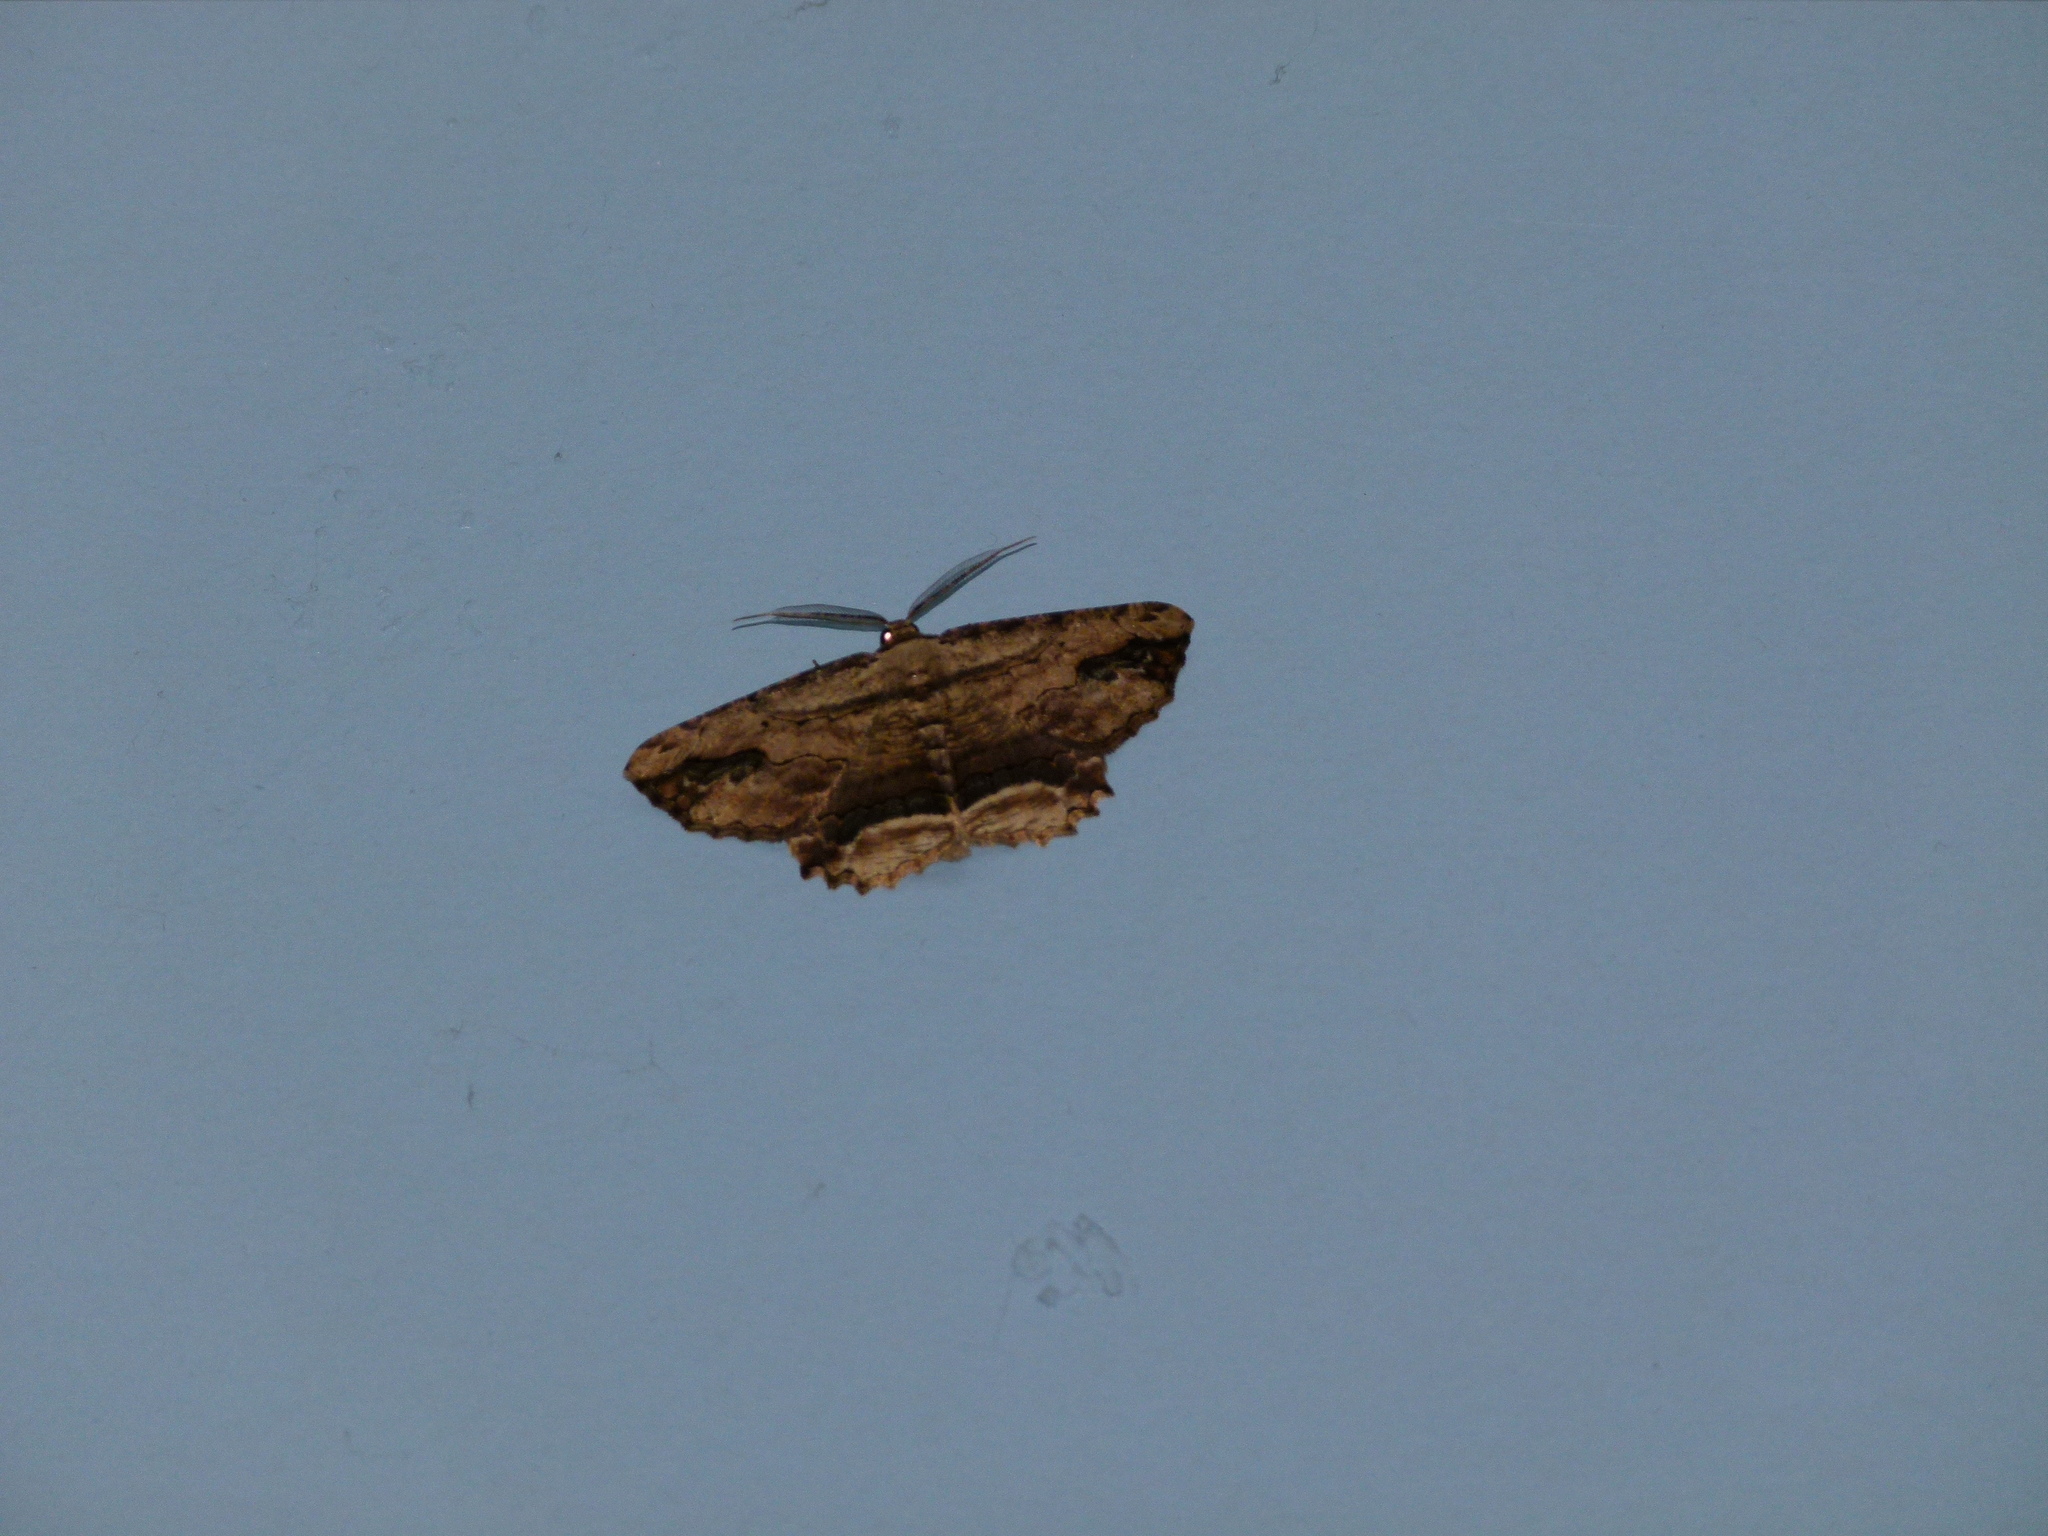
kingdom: Animalia
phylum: Arthropoda
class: Insecta
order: Lepidoptera
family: Geometridae
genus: Menophra
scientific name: Menophra abruptaria
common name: Waved umber
